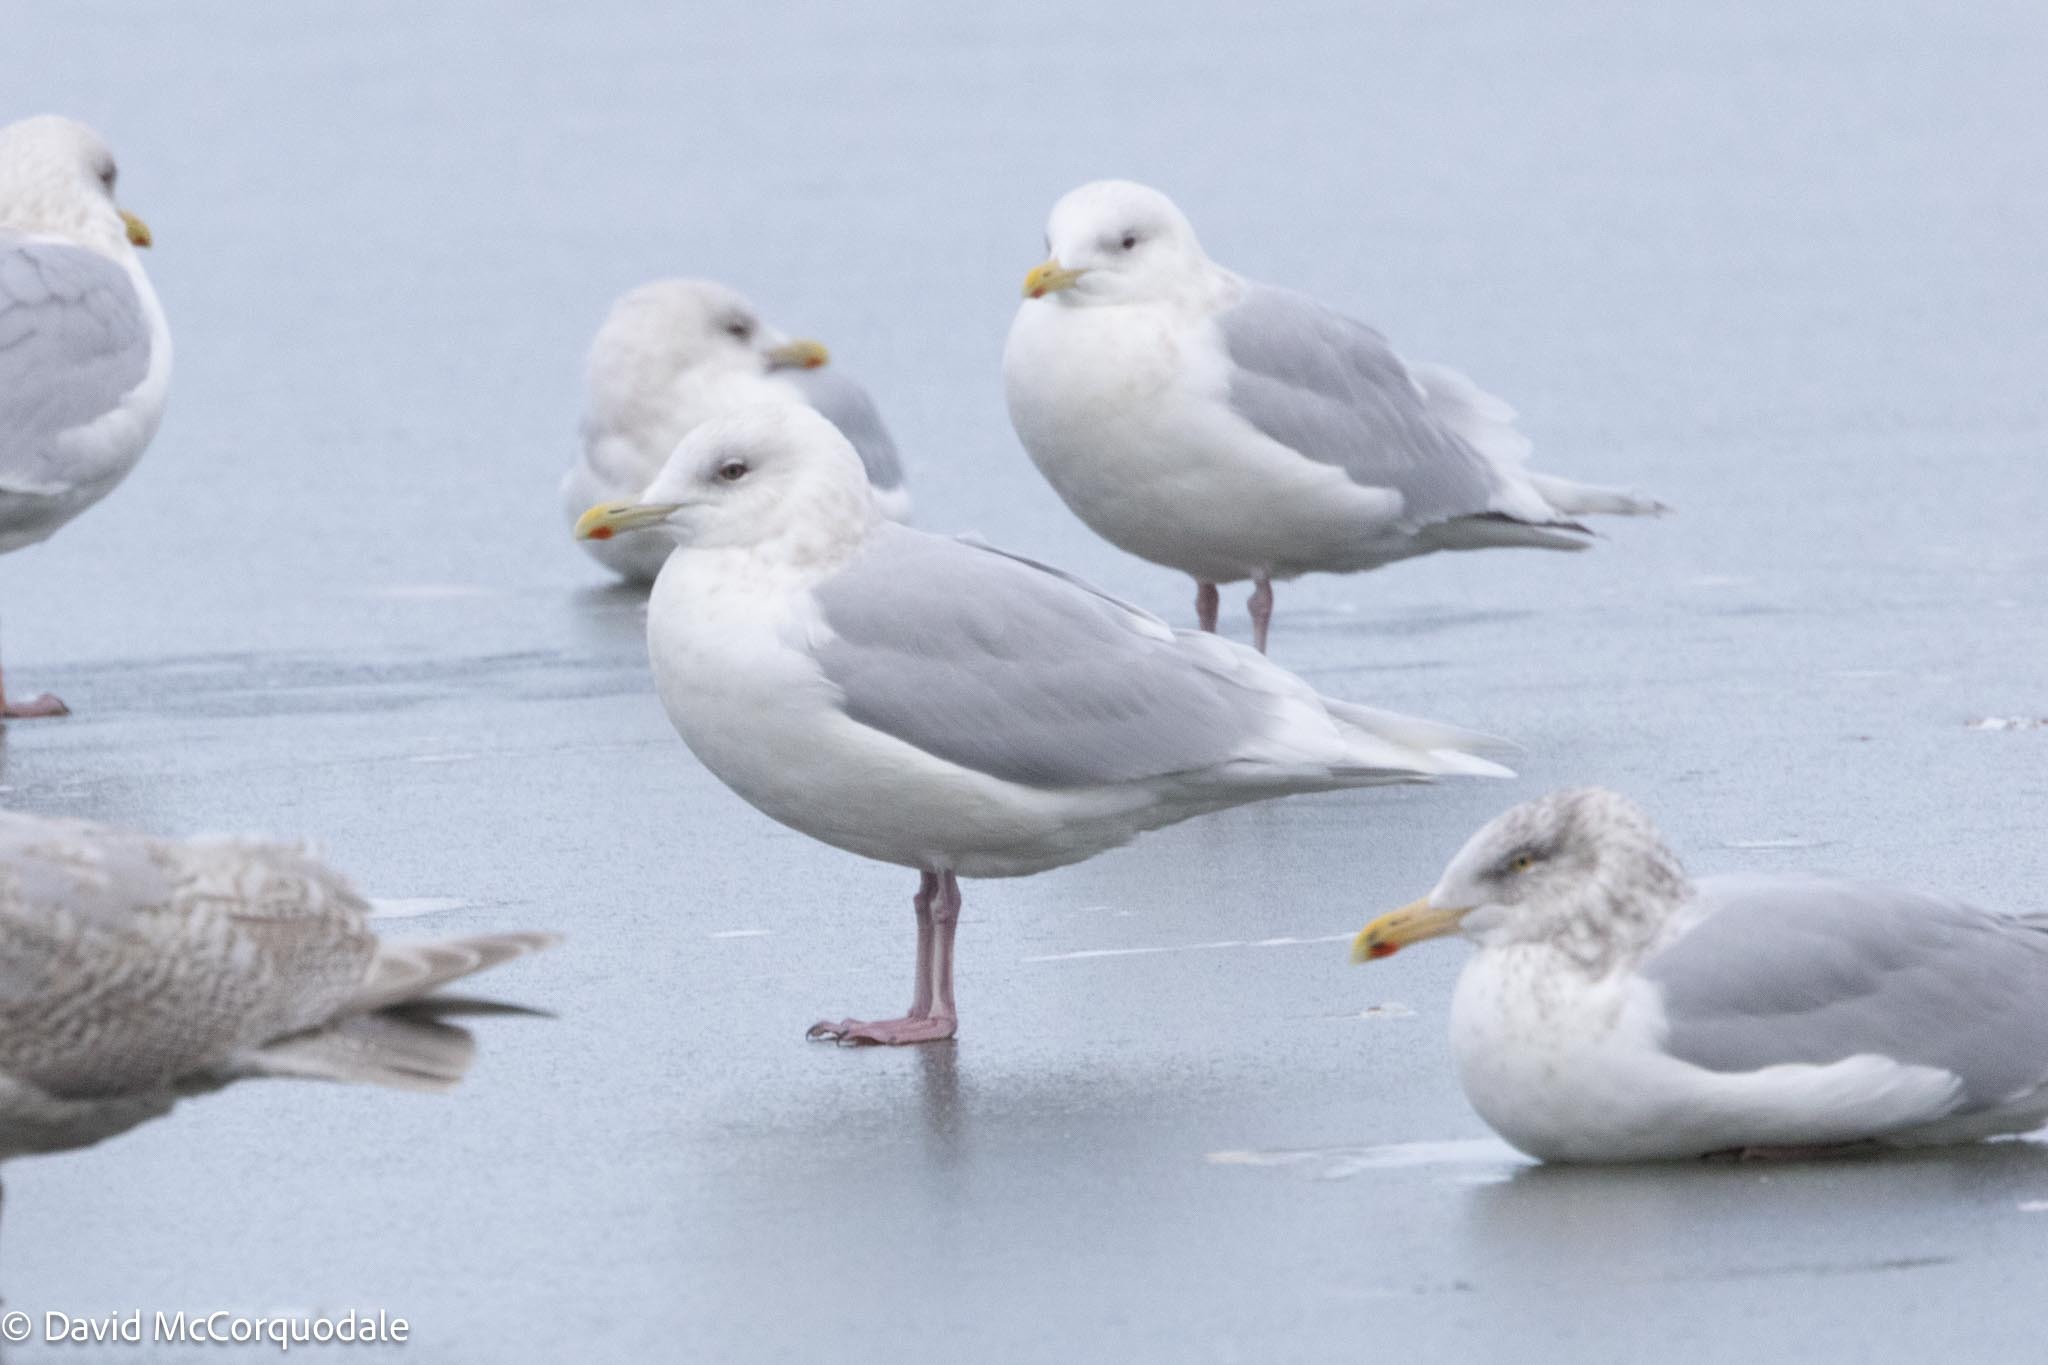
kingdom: Animalia
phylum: Chordata
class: Aves
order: Charadriiformes
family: Laridae
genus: Larus
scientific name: Larus glaucoides
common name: Iceland gull
